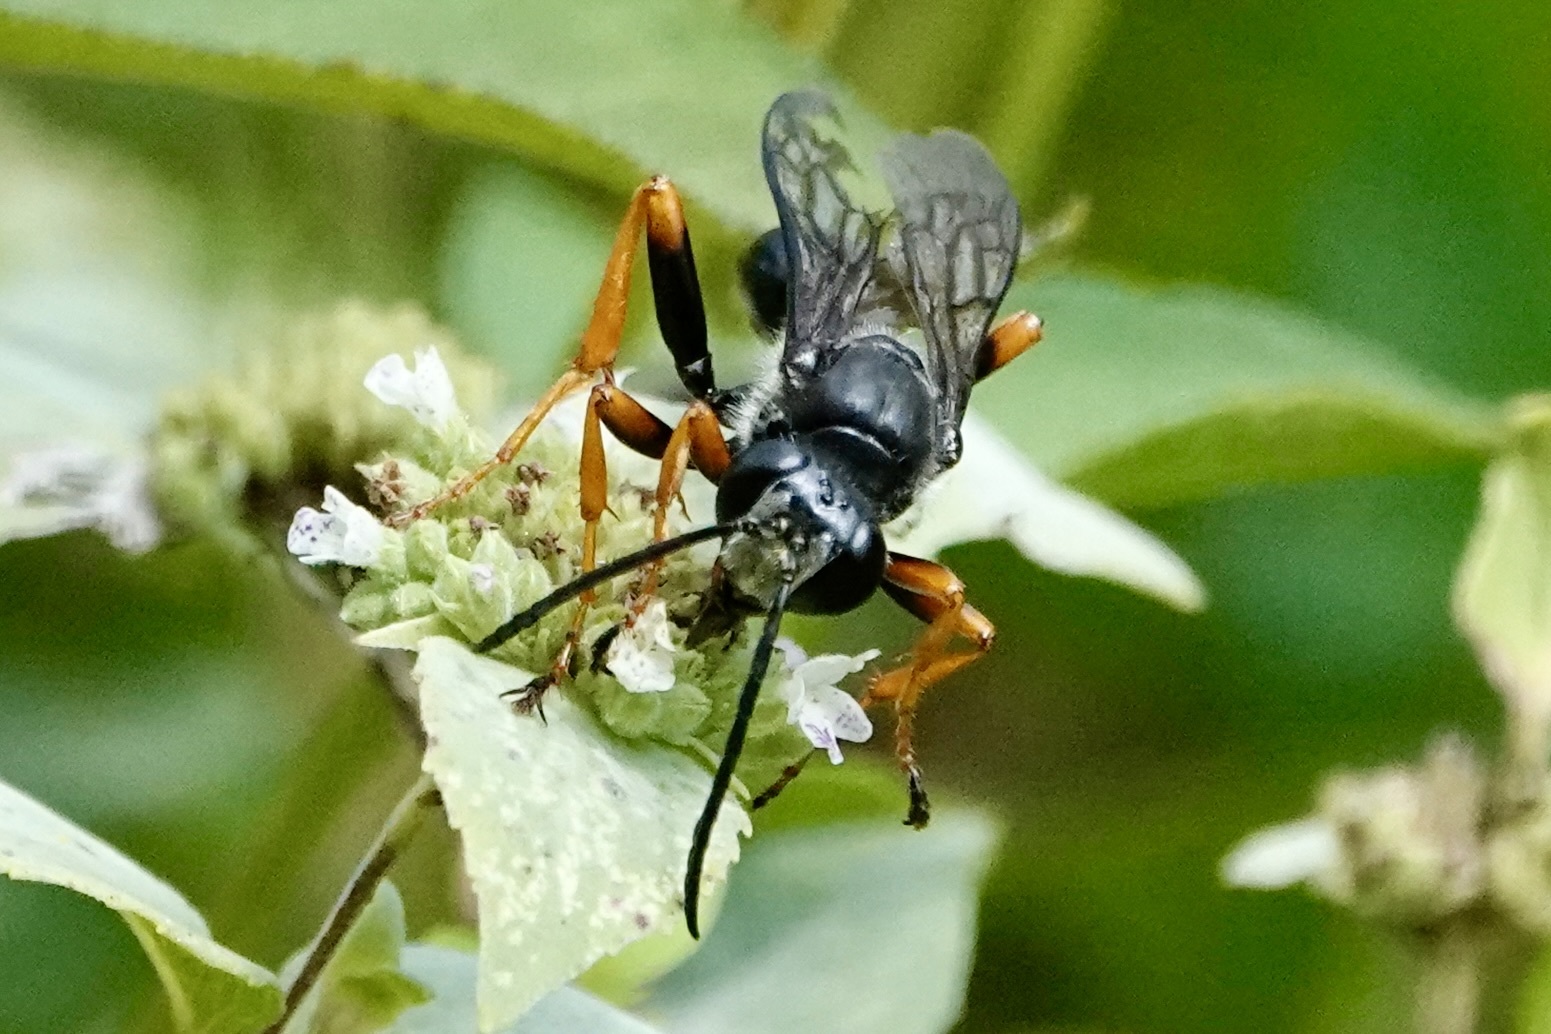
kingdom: Animalia
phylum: Arthropoda
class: Insecta
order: Hymenoptera
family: Sphecidae
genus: Sphex
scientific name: Sphex nudus
